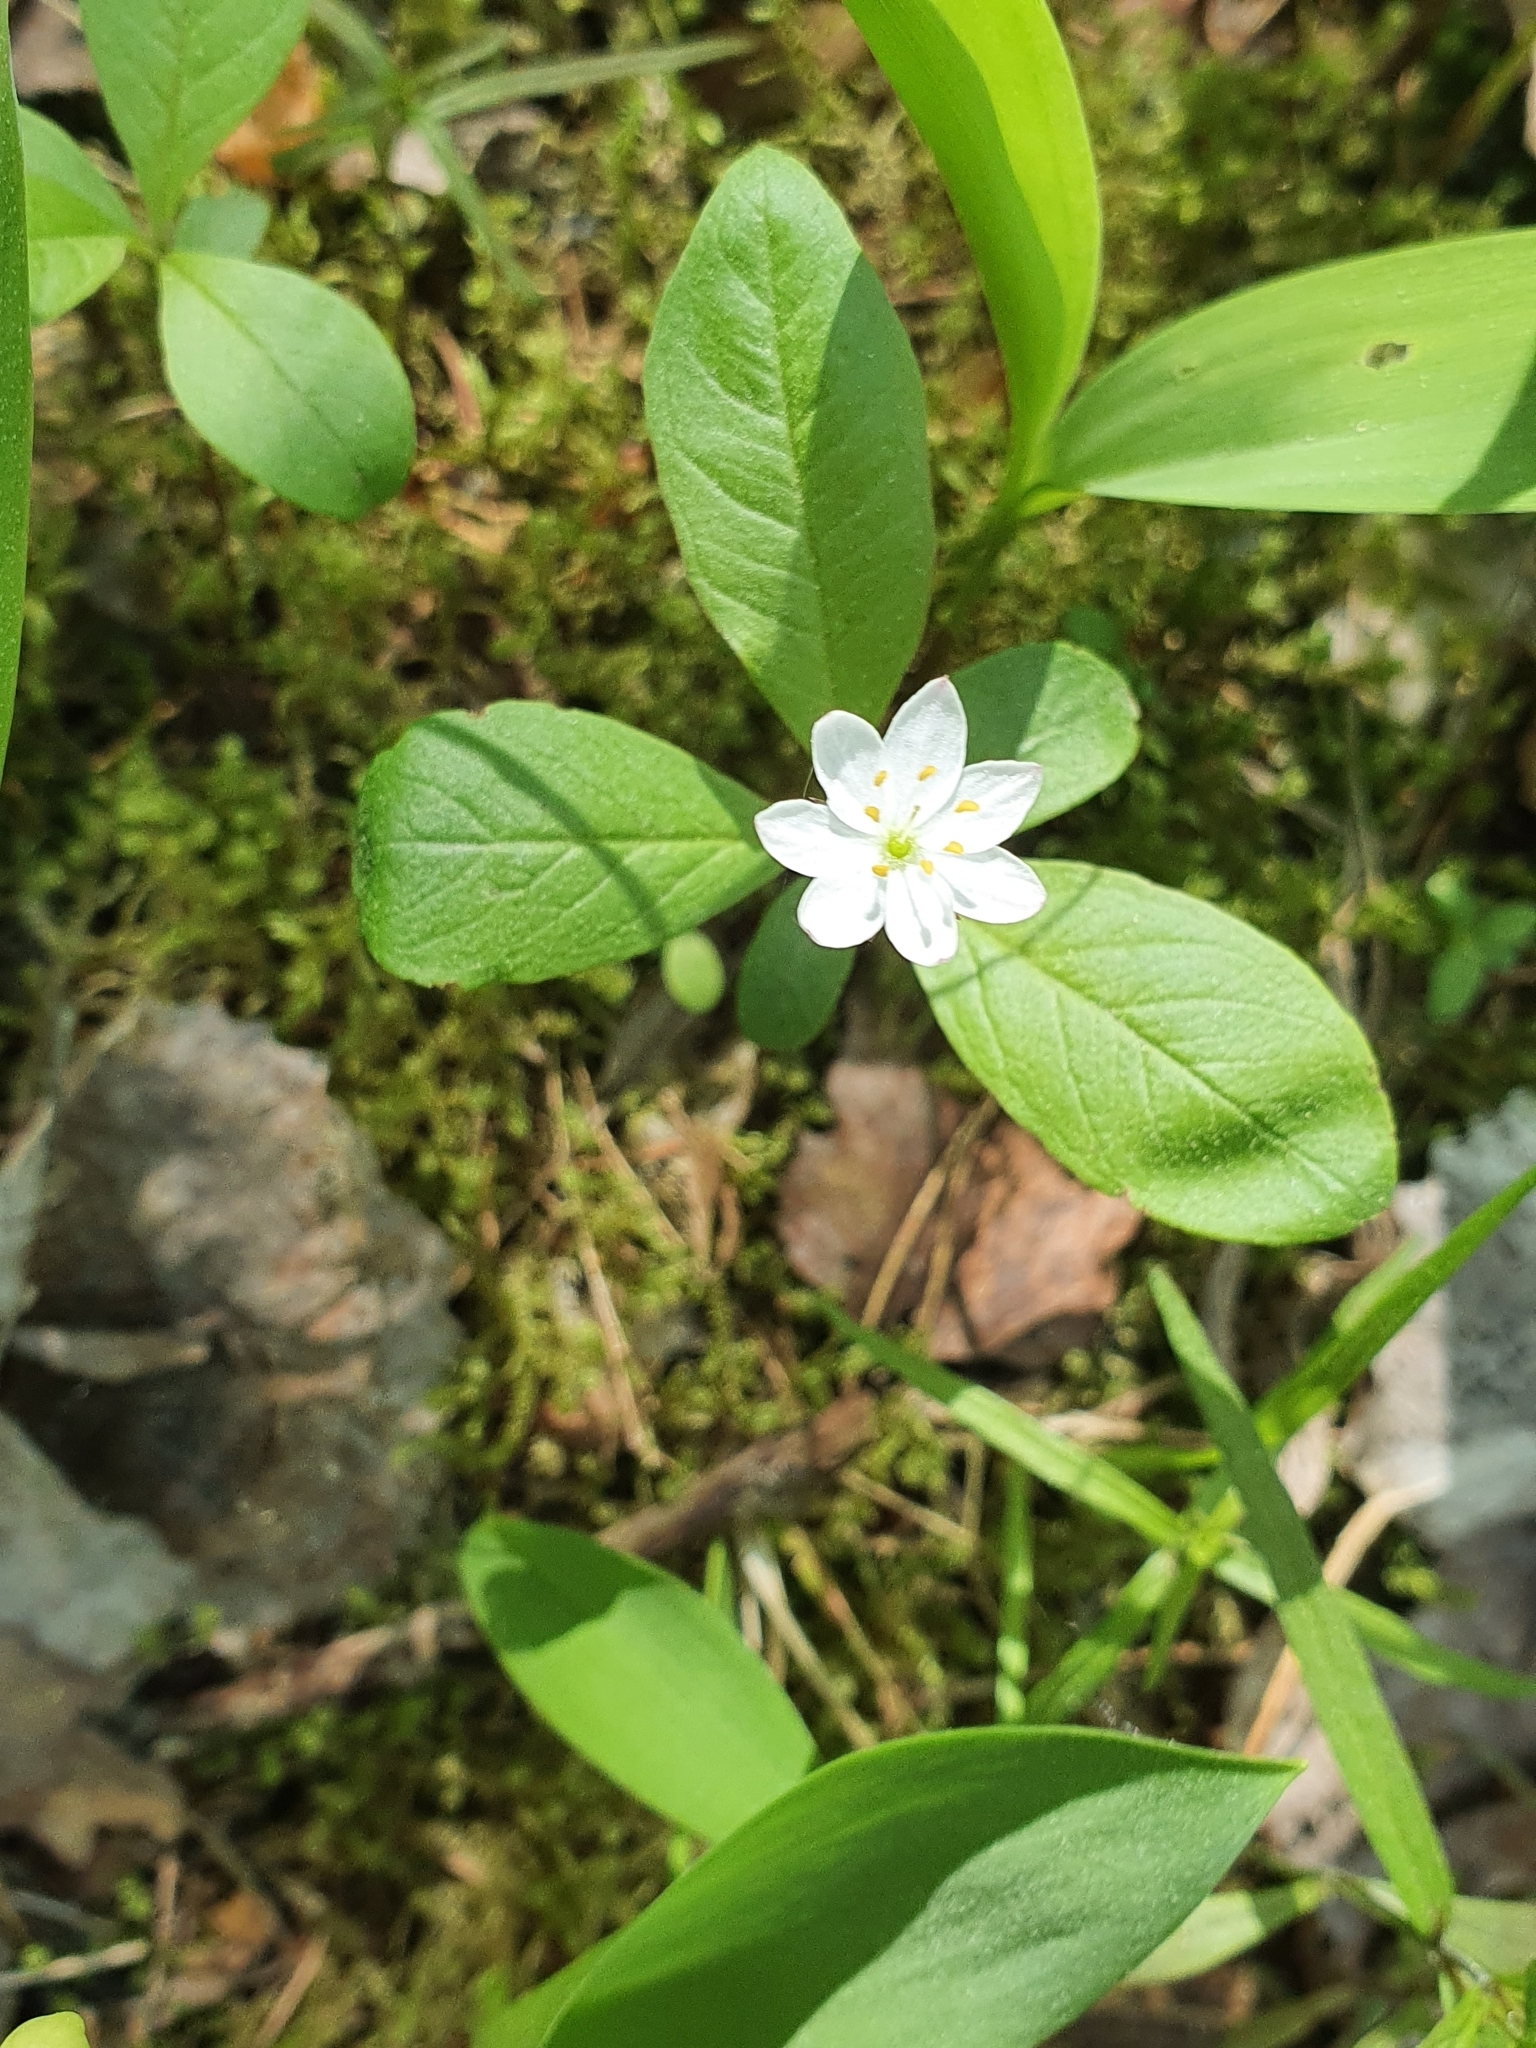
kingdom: Plantae
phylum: Tracheophyta
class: Magnoliopsida
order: Ericales
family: Primulaceae
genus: Lysimachia
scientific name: Lysimachia europaea
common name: Arctic starflower
